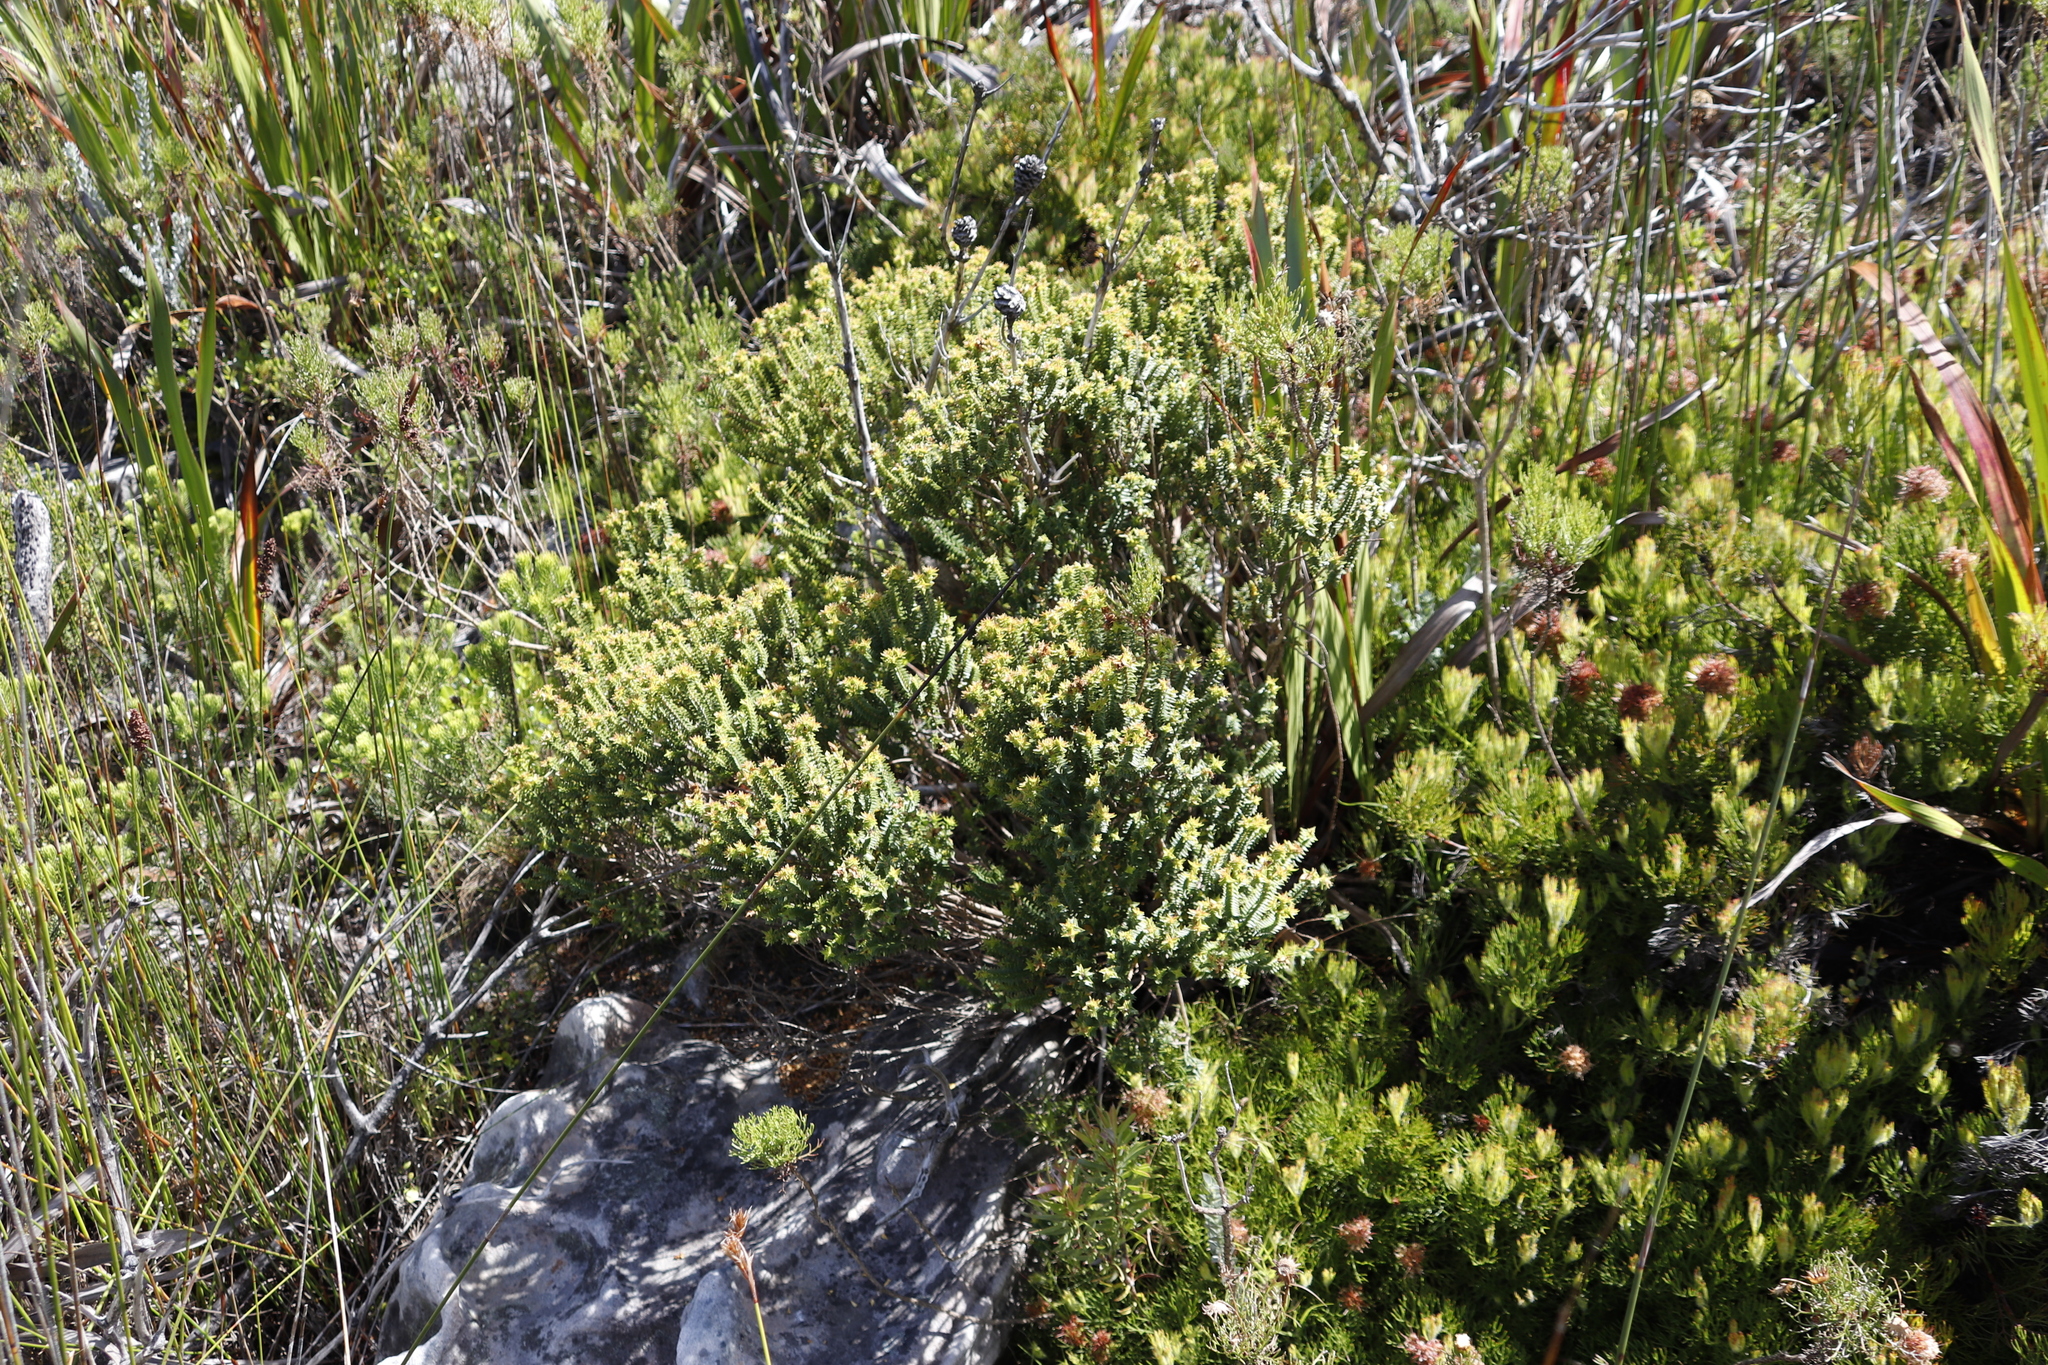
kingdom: Plantae
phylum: Tracheophyta
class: Magnoliopsida
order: Myrtales
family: Penaeaceae
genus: Penaea
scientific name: Penaea mucronata
